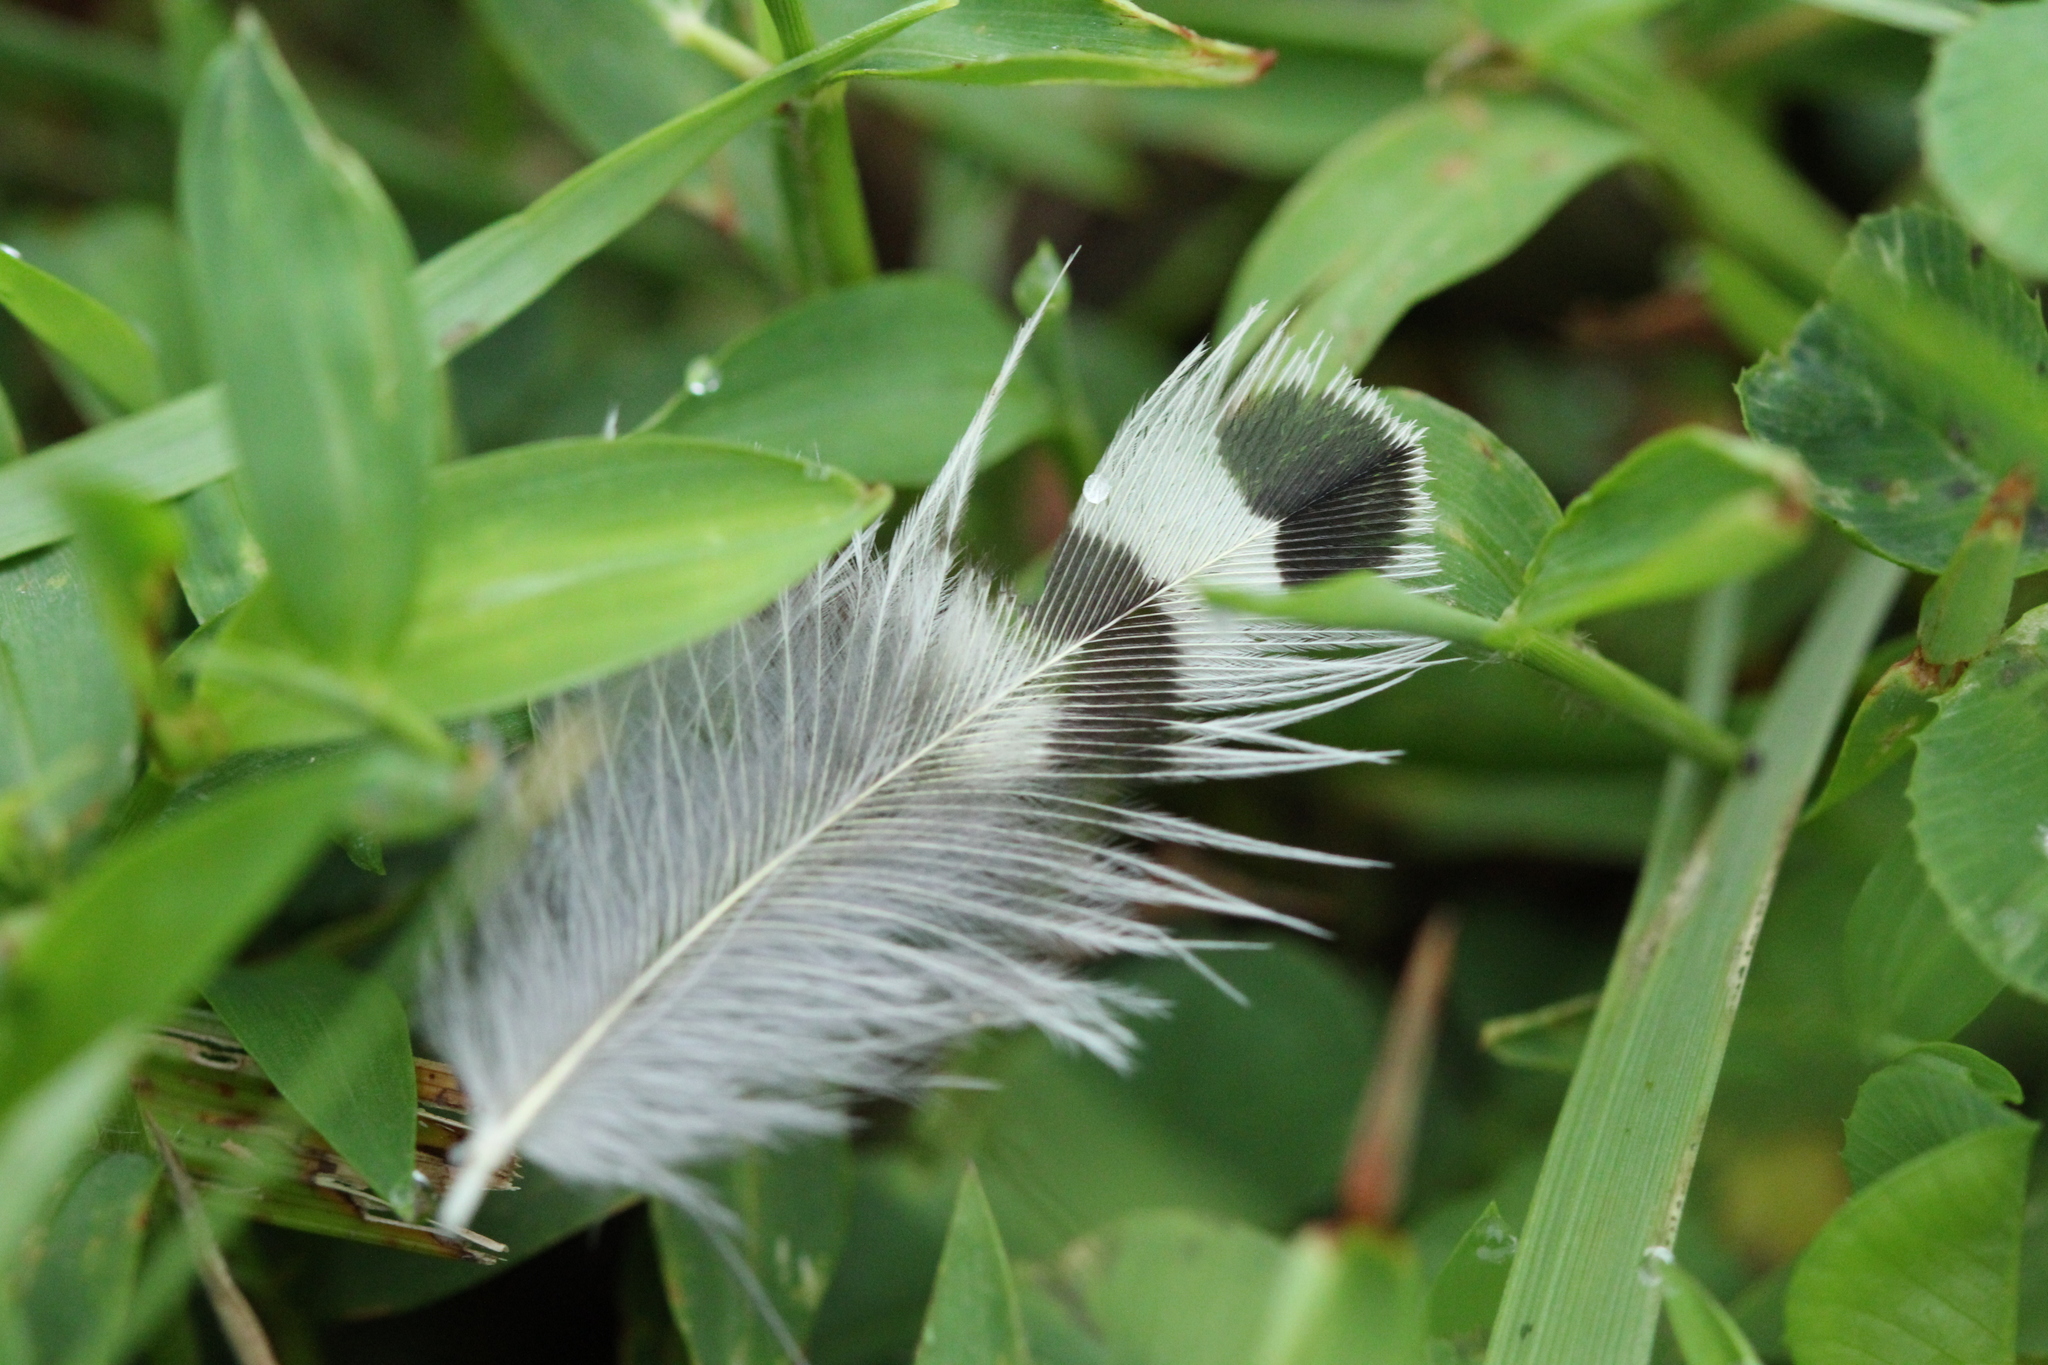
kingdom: Animalia
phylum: Chordata
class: Aves
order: Piciformes
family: Picidae
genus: Colaptes
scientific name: Colaptes auratus
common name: Northern flicker
